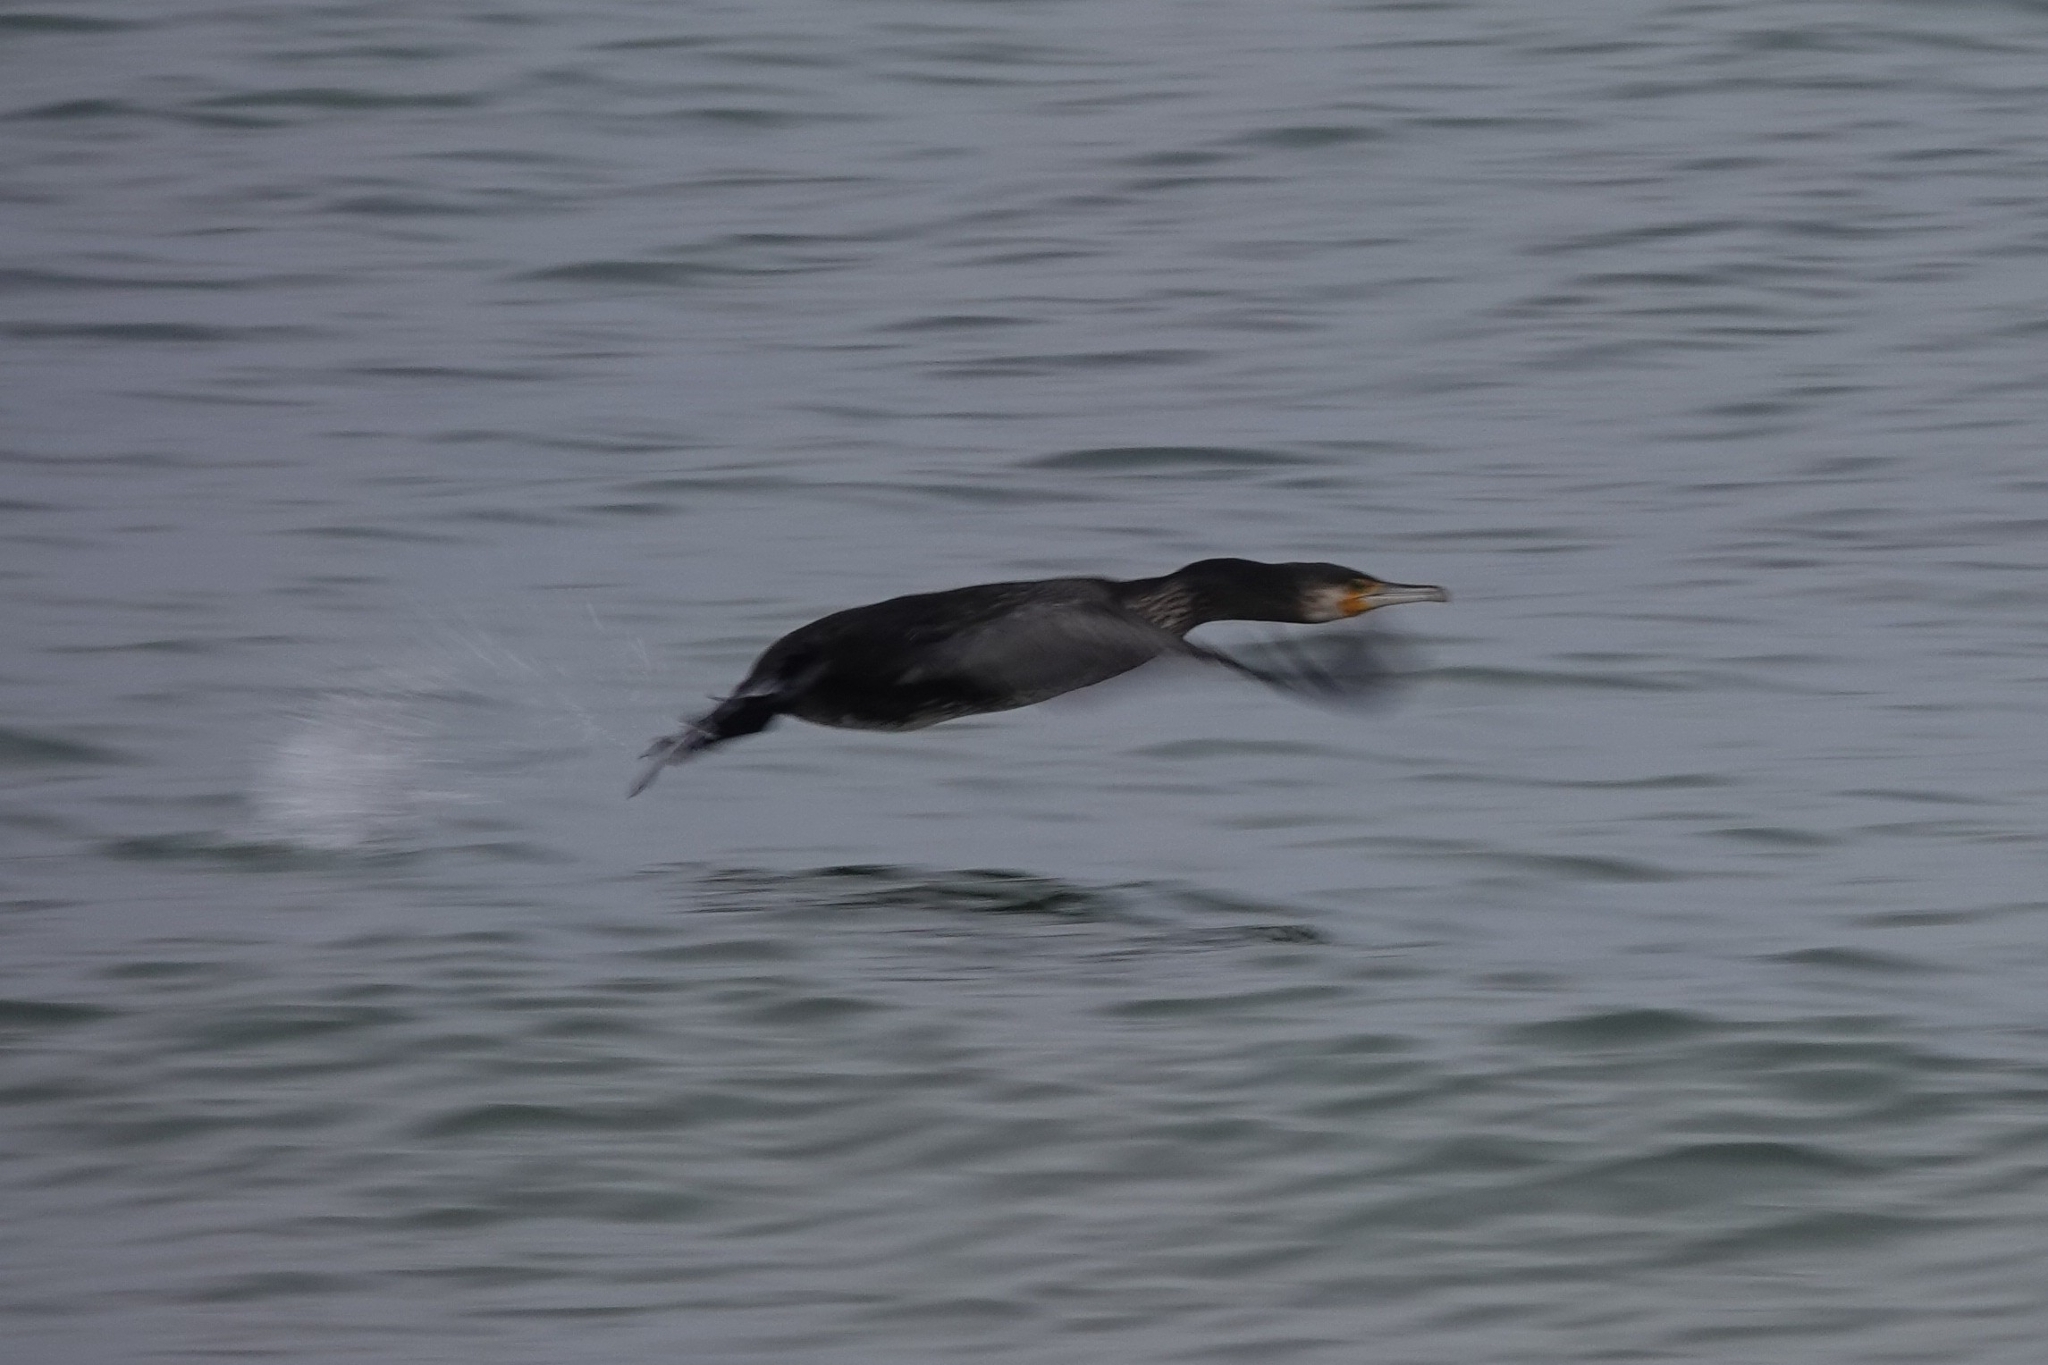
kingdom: Animalia
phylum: Chordata
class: Aves
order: Suliformes
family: Phalacrocoracidae
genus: Phalacrocorax
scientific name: Phalacrocorax carbo
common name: Great cormorant
